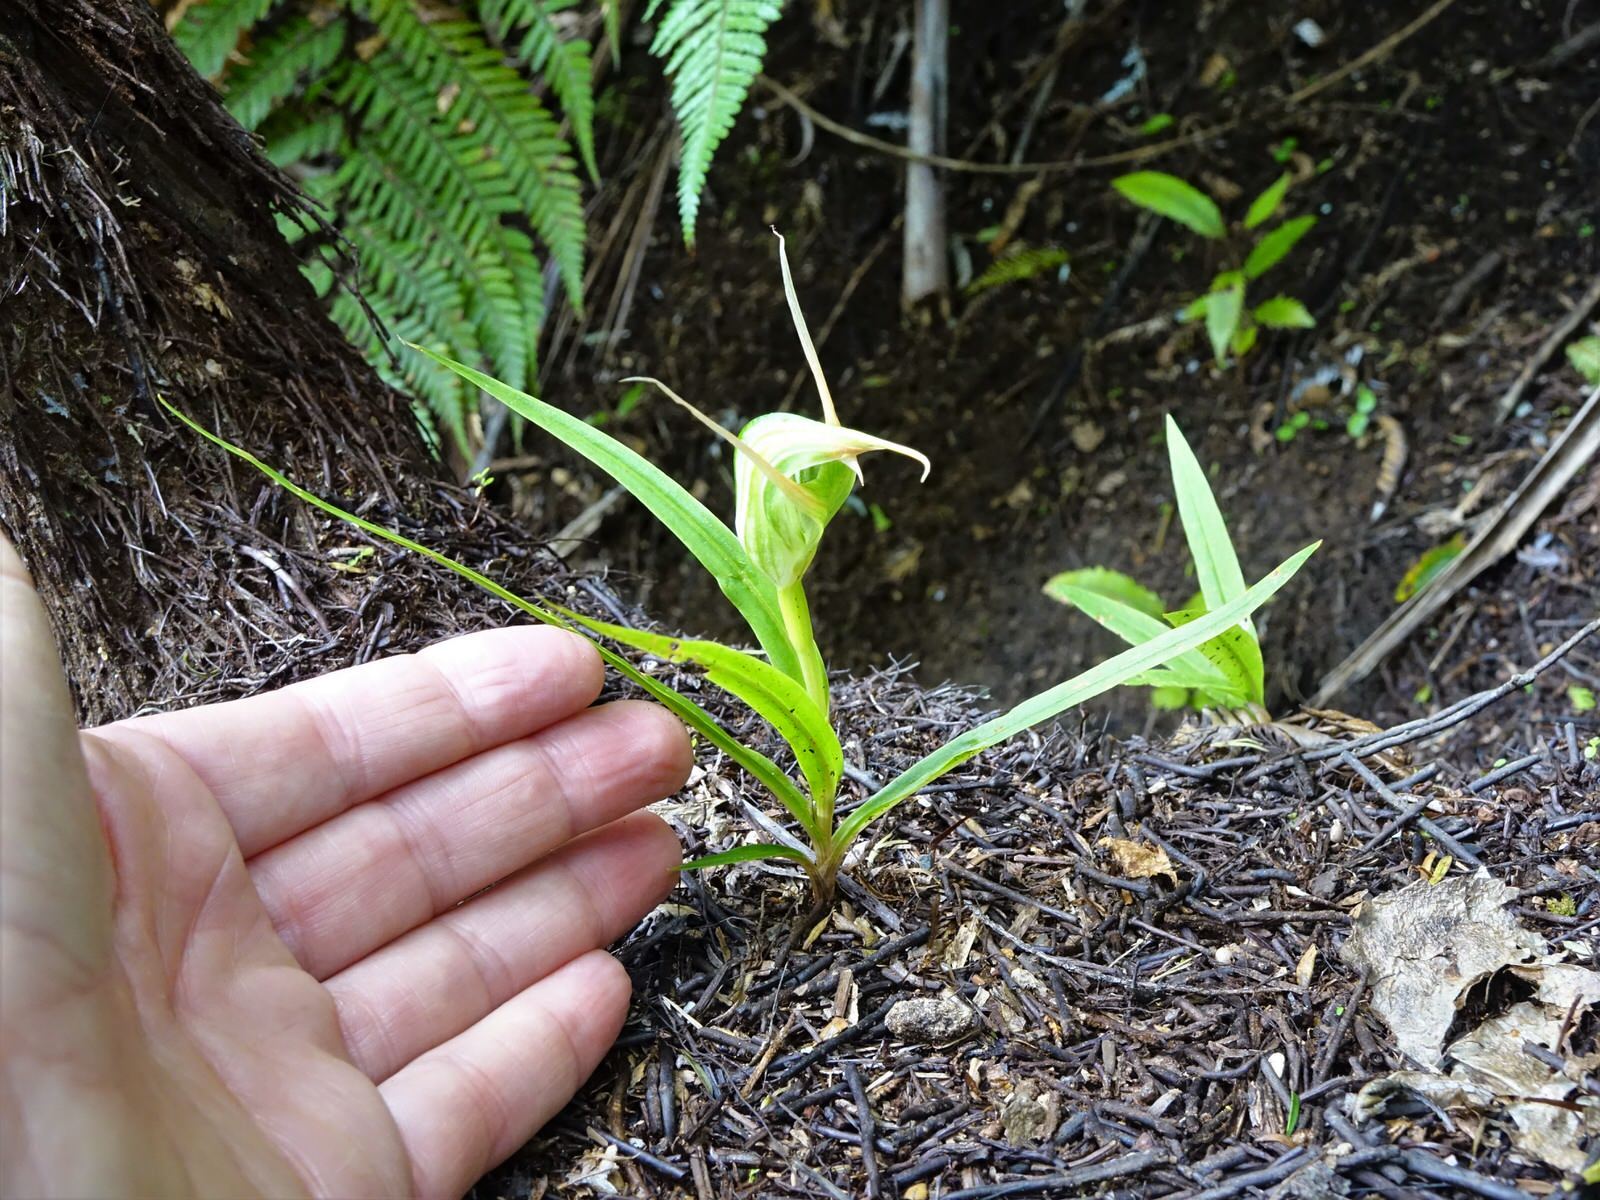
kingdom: Plantae
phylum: Tracheophyta
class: Liliopsida
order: Asparagales
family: Orchidaceae
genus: Pterostylis
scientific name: Pterostylis banksii
